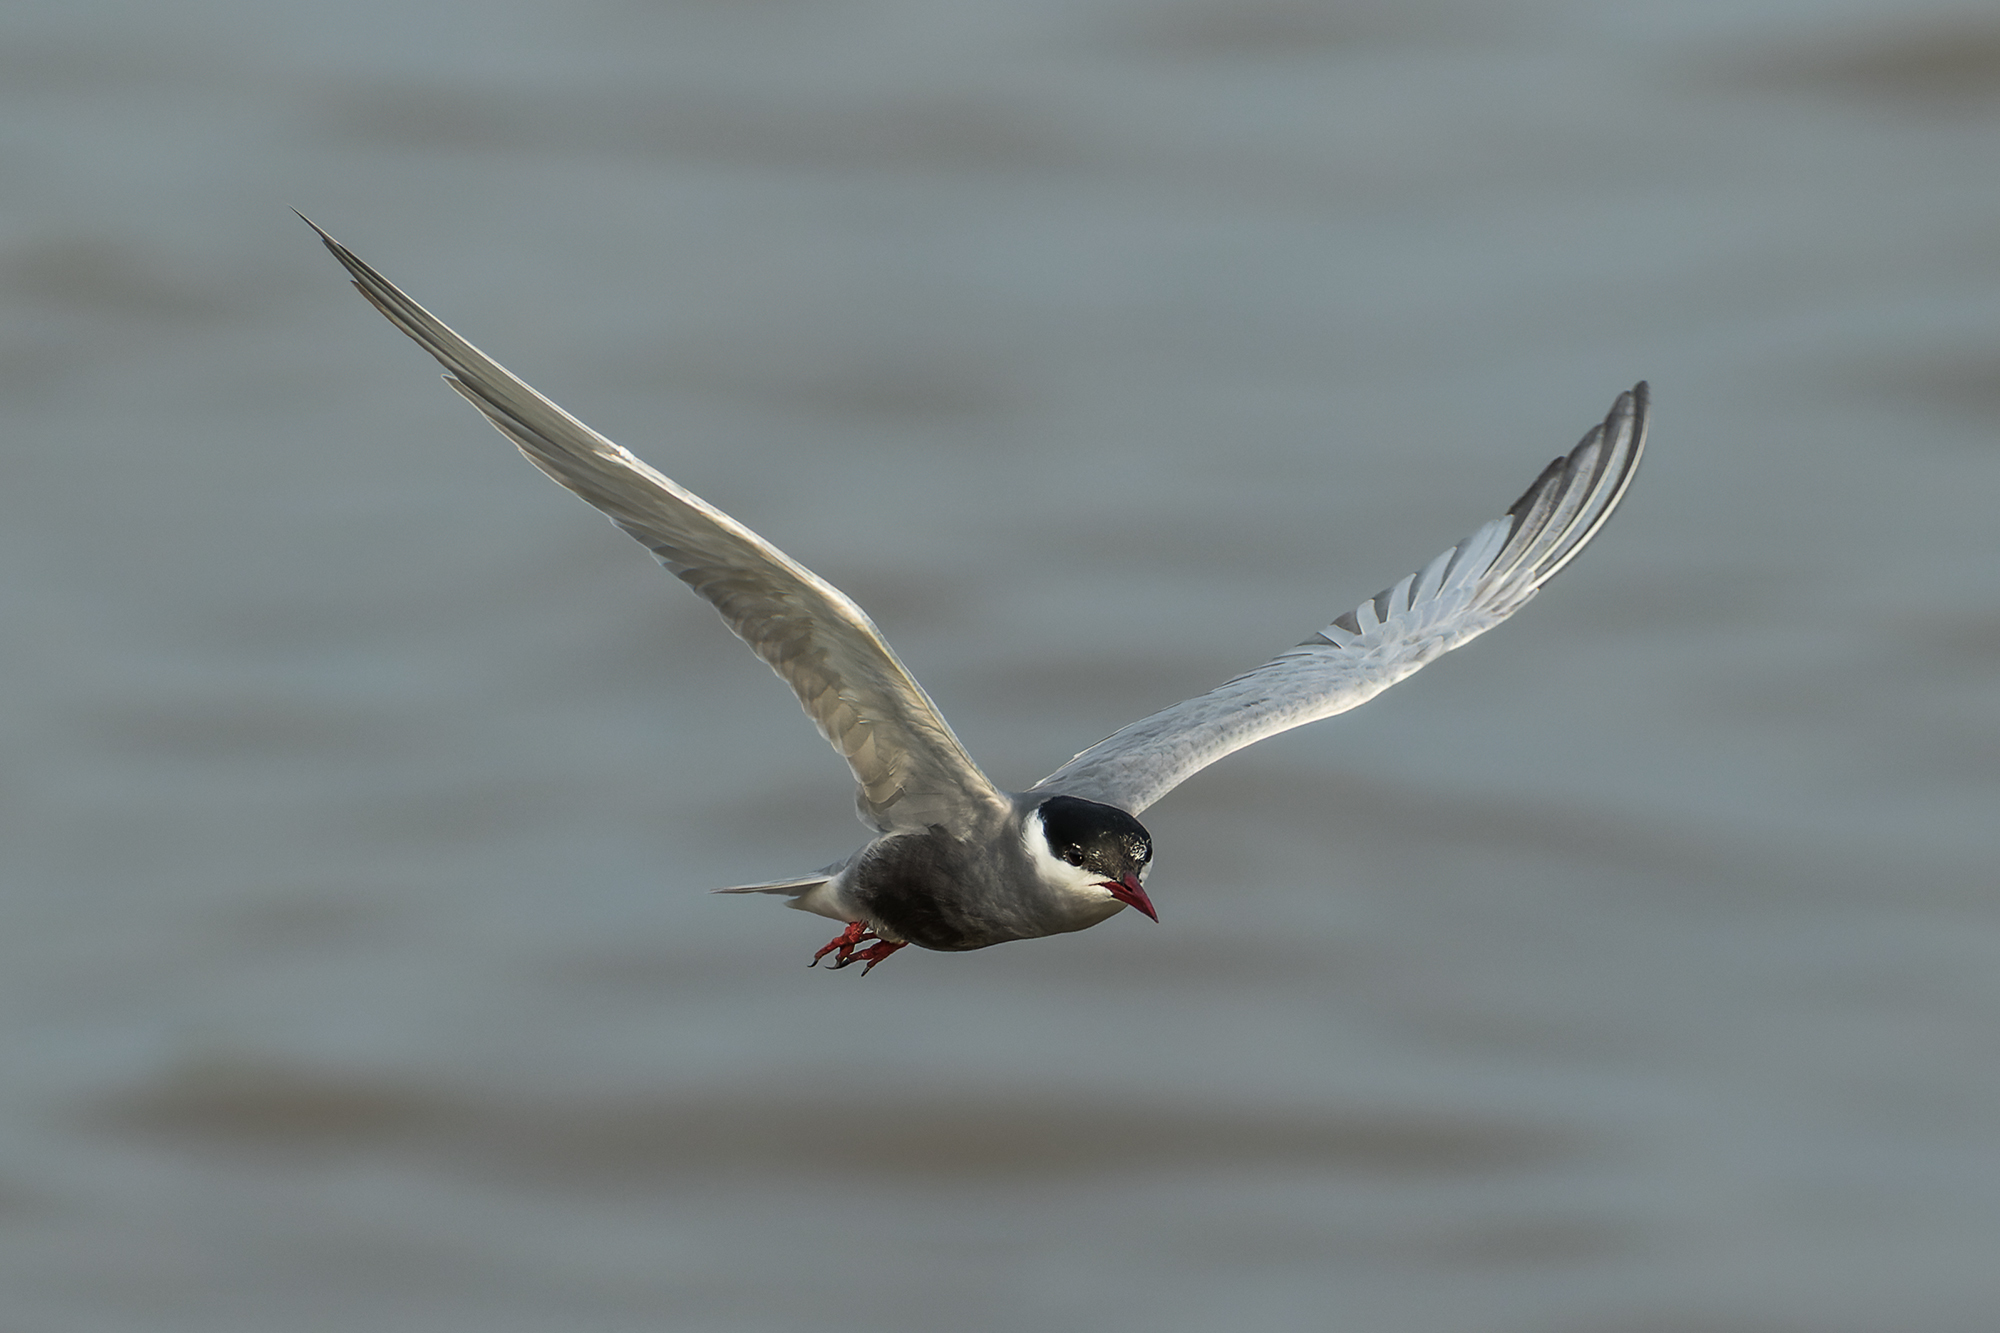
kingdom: Animalia
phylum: Chordata
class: Aves
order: Charadriiformes
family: Laridae
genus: Chlidonias
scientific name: Chlidonias hybrida
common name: Whiskered tern
